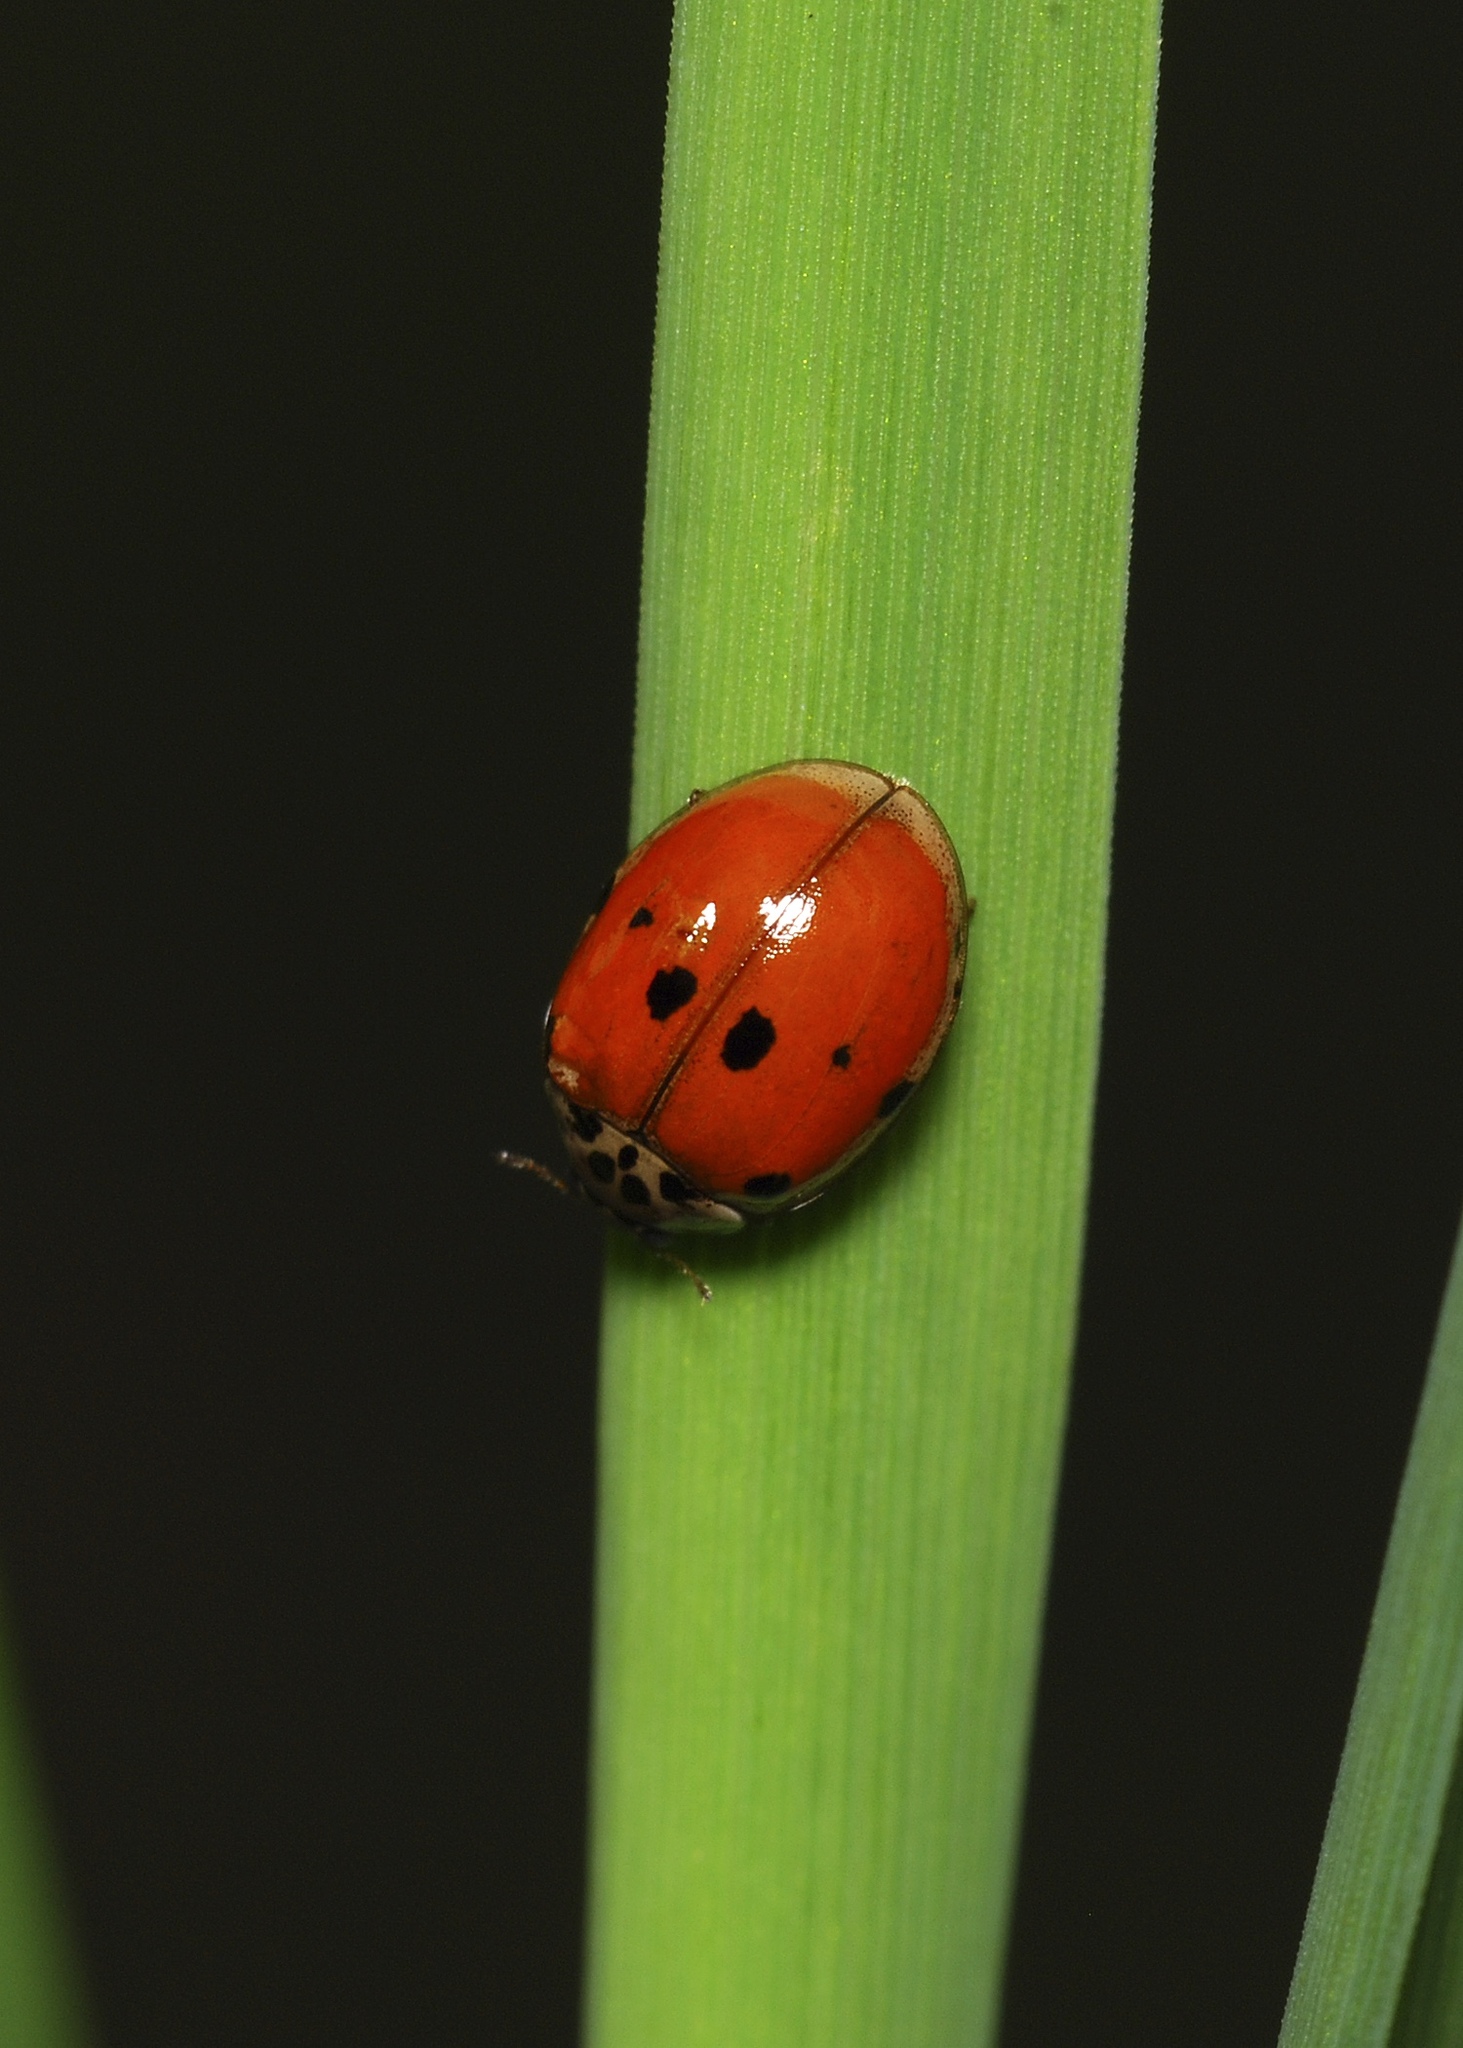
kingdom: Animalia
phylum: Arthropoda
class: Insecta
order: Coleoptera
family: Coccinellidae
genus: Adalia
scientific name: Adalia decempunctata
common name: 10-spot ladybird
